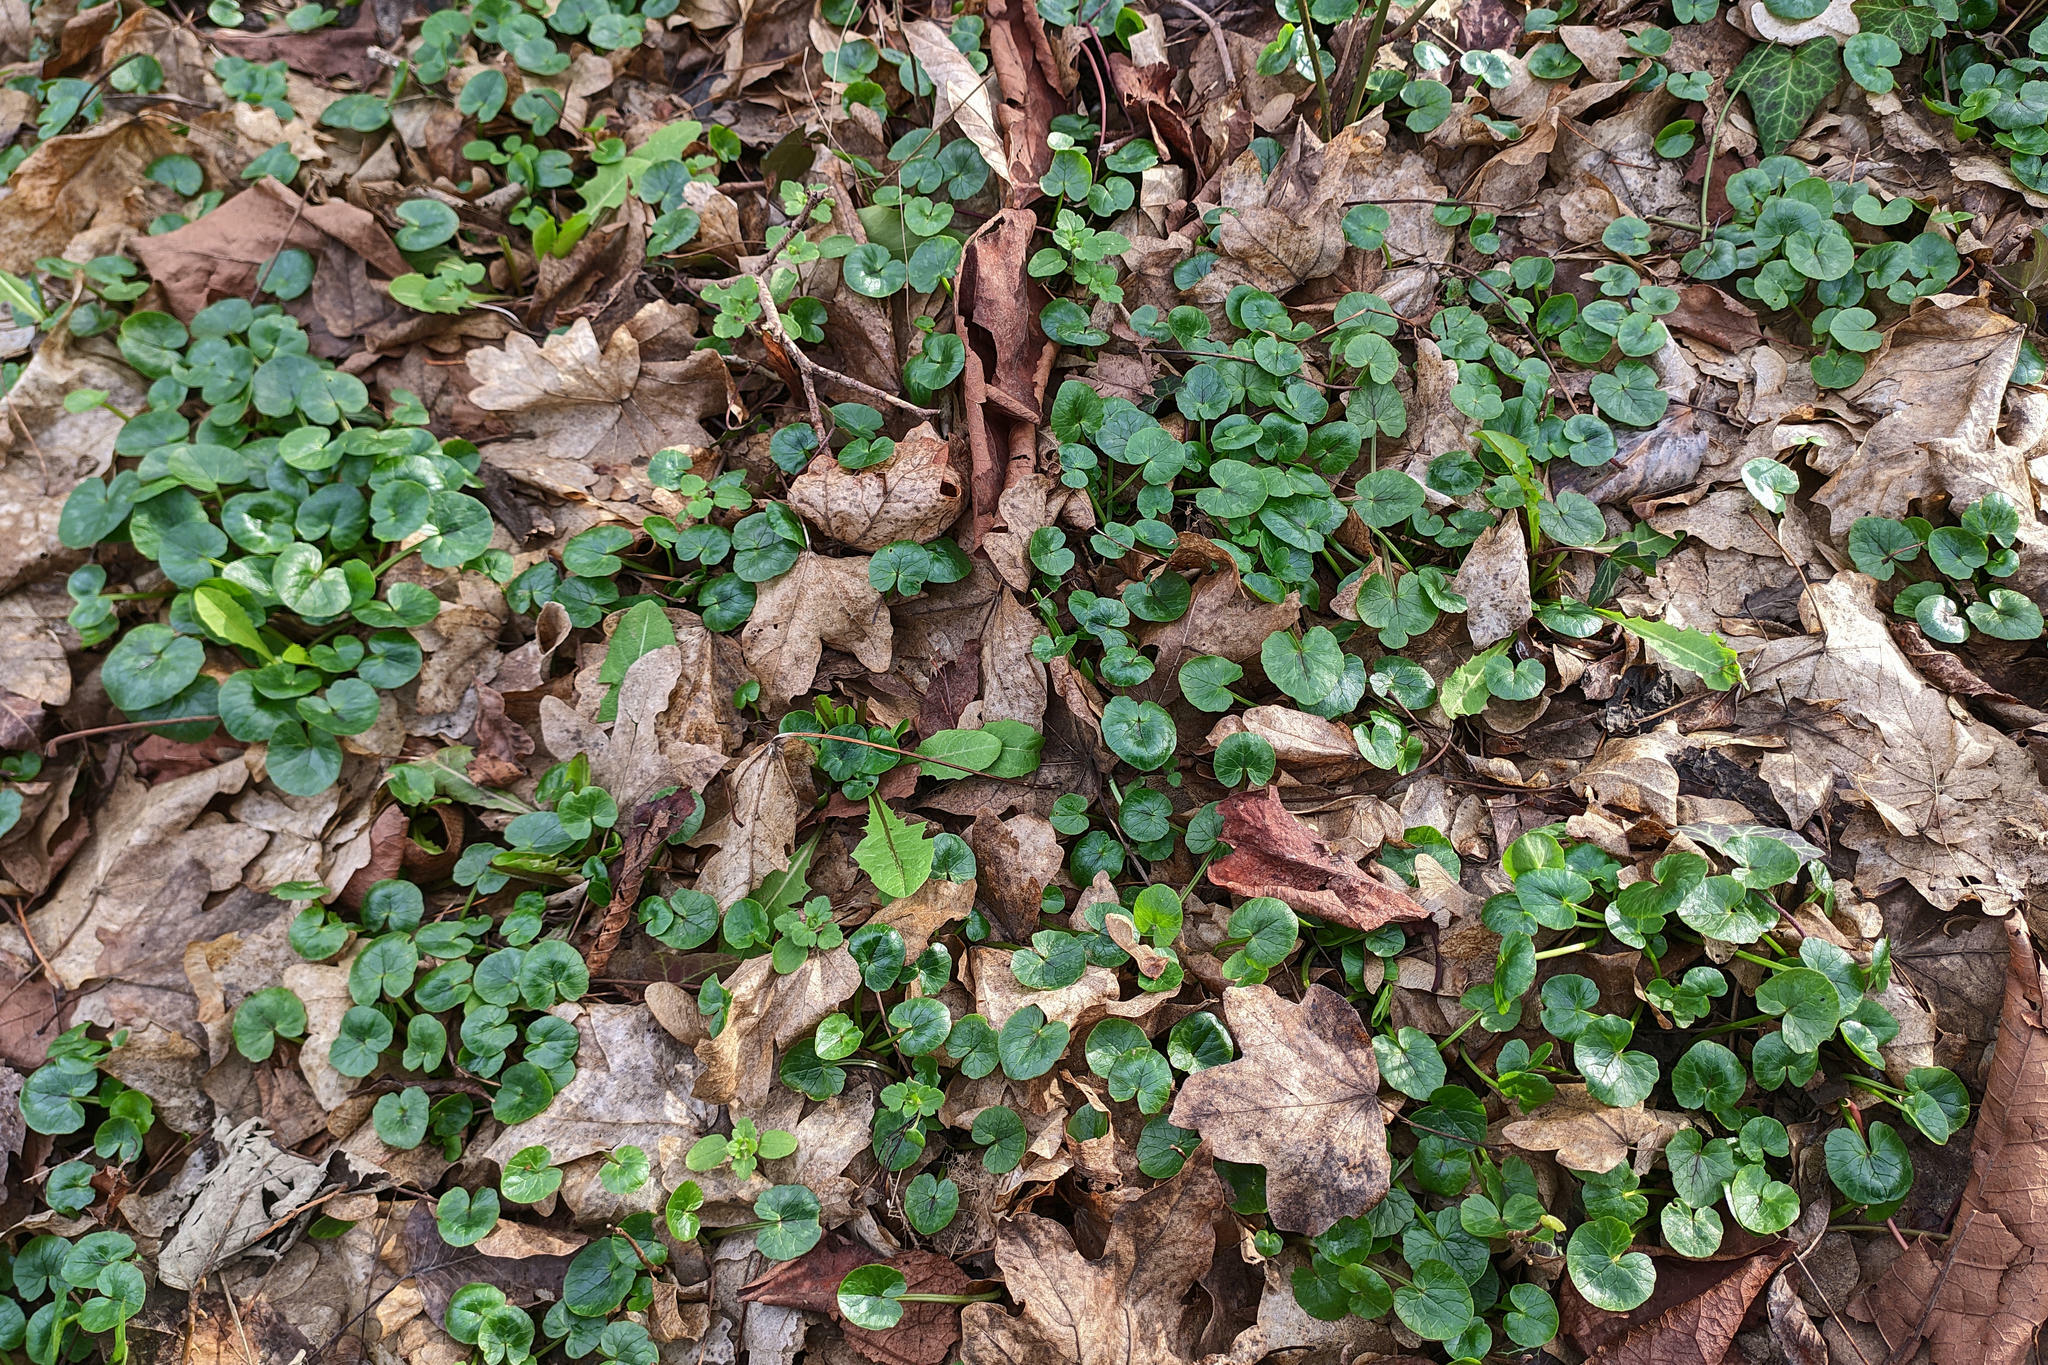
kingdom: Plantae
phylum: Tracheophyta
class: Magnoliopsida
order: Ranunculales
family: Ranunculaceae
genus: Ficaria
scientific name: Ficaria verna
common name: Lesser celandine
